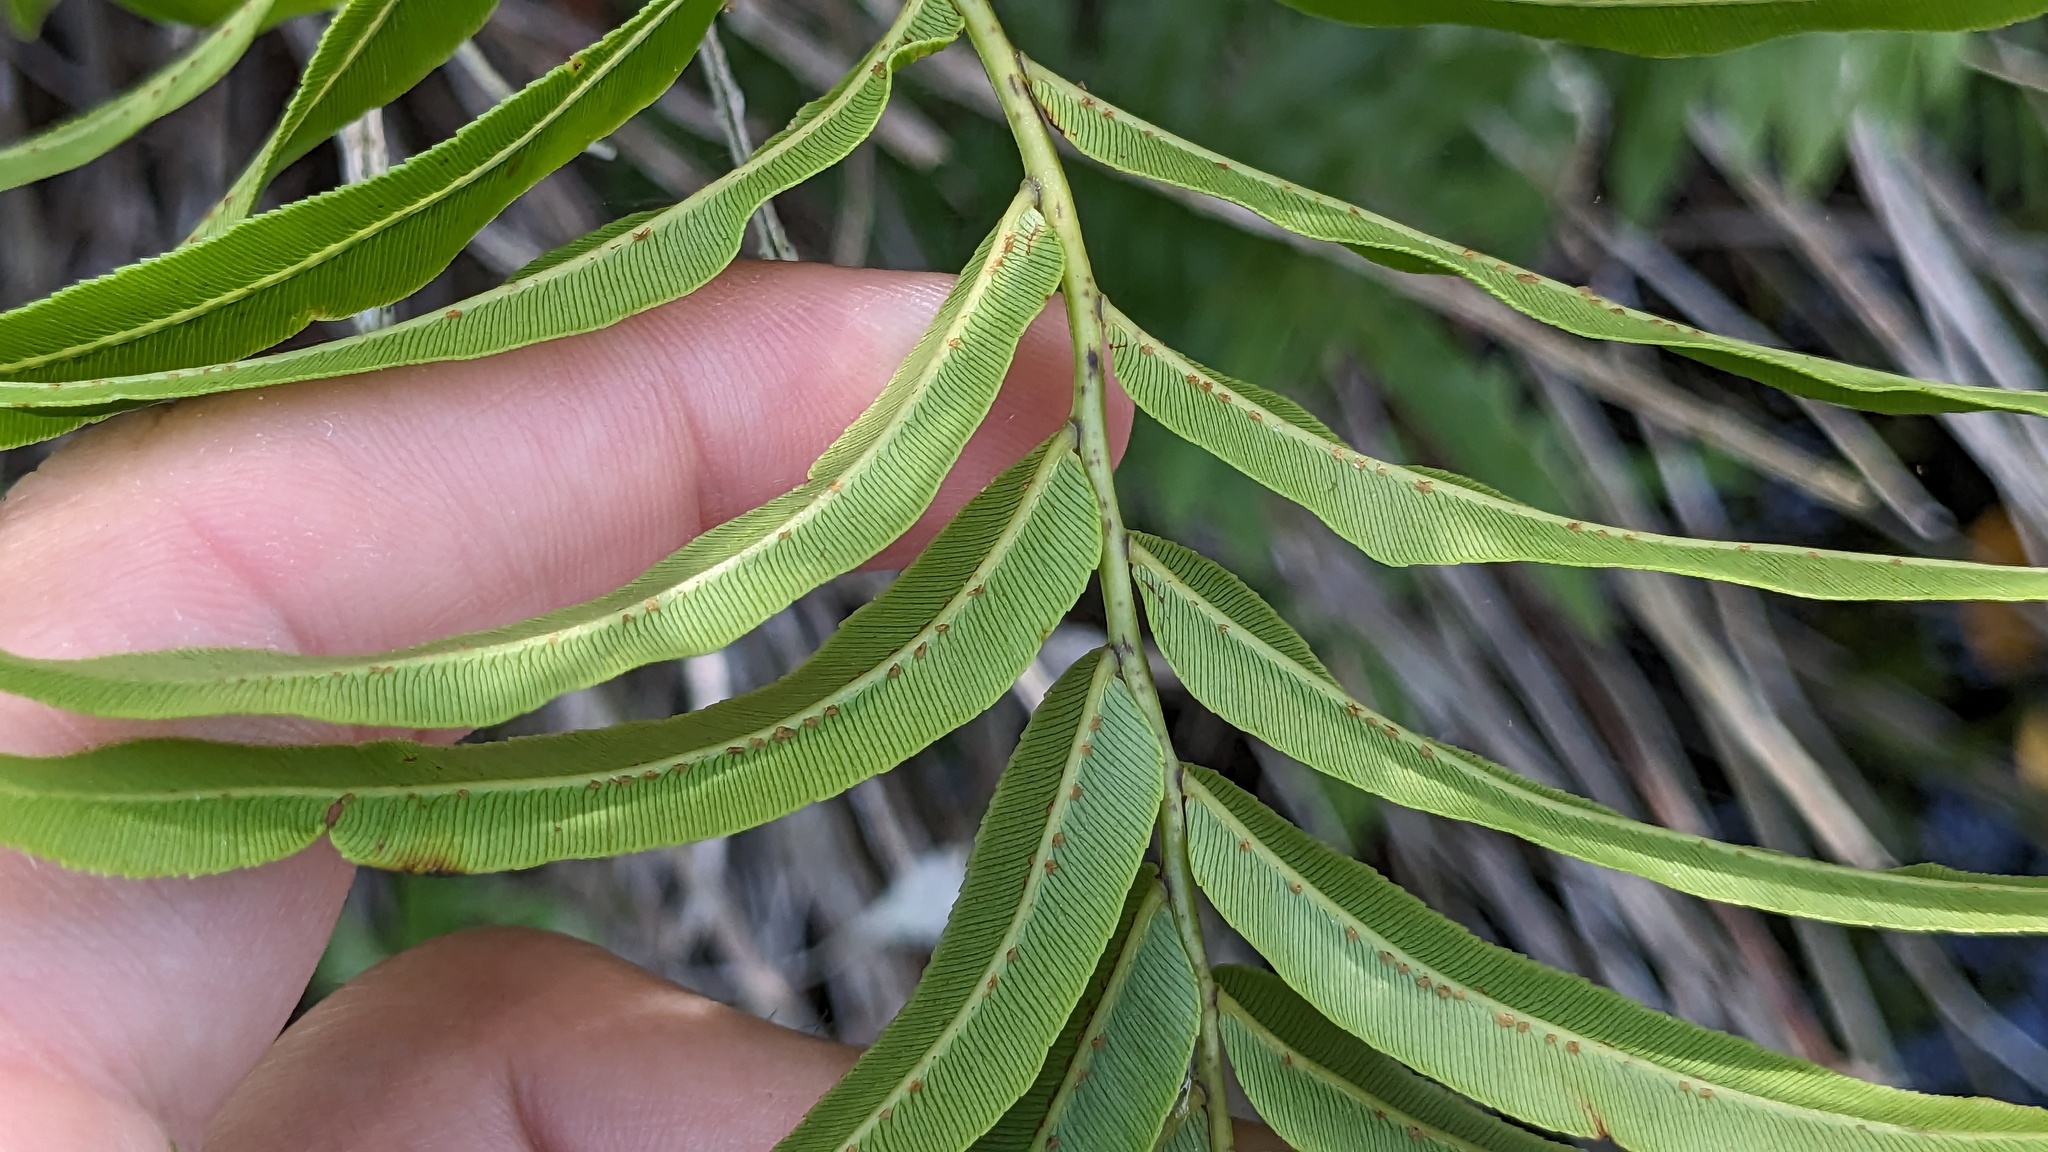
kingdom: Plantae
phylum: Tracheophyta
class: Polypodiopsida
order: Polypodiales
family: Blechnaceae
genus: Telmatoblechnum
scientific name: Telmatoblechnum serrulatum
